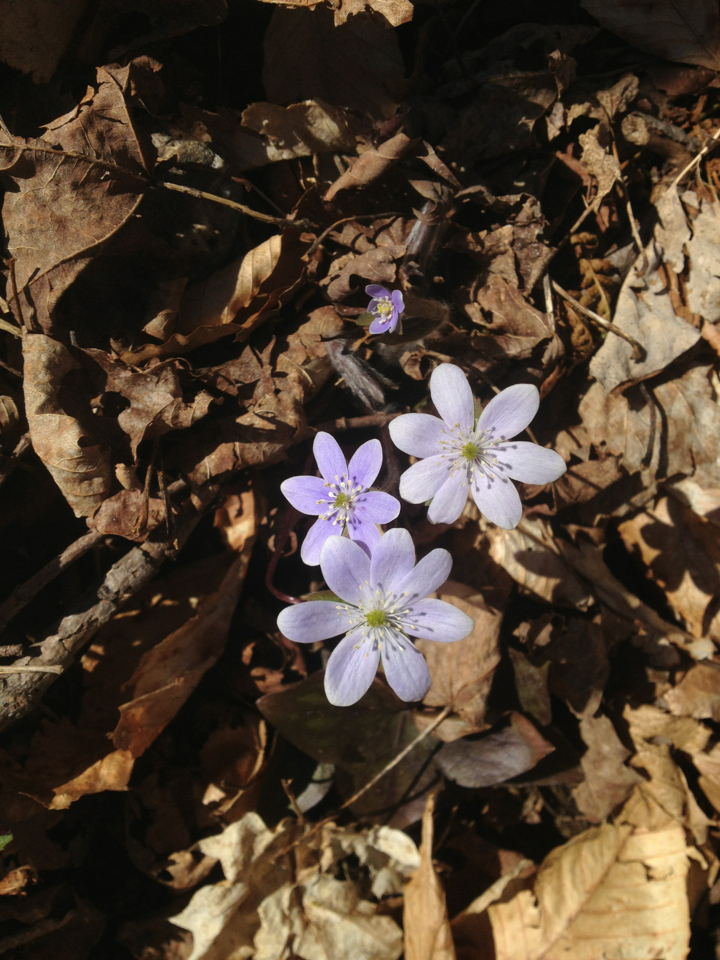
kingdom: Plantae
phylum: Tracheophyta
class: Magnoliopsida
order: Ranunculales
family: Ranunculaceae
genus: Hepatica
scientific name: Hepatica acutiloba
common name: Sharp-lobed hepatica
